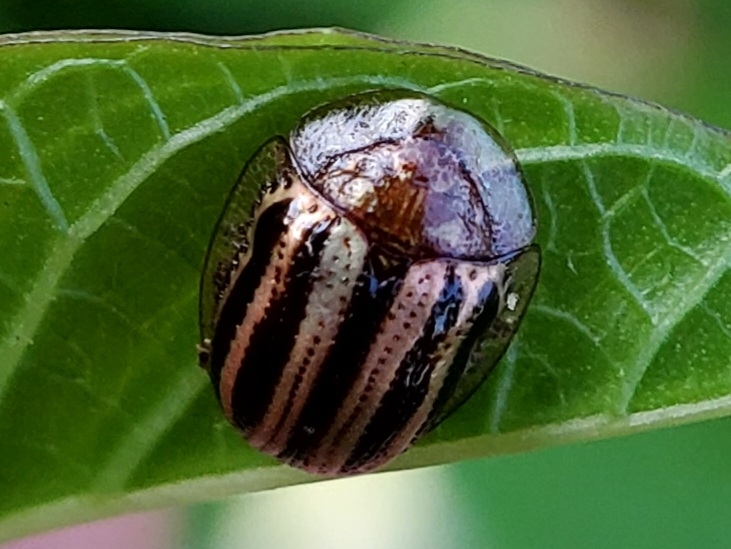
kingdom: Animalia
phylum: Arthropoda
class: Insecta
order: Coleoptera
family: Chrysomelidae
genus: Agroiconota
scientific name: Agroiconota bivittata
